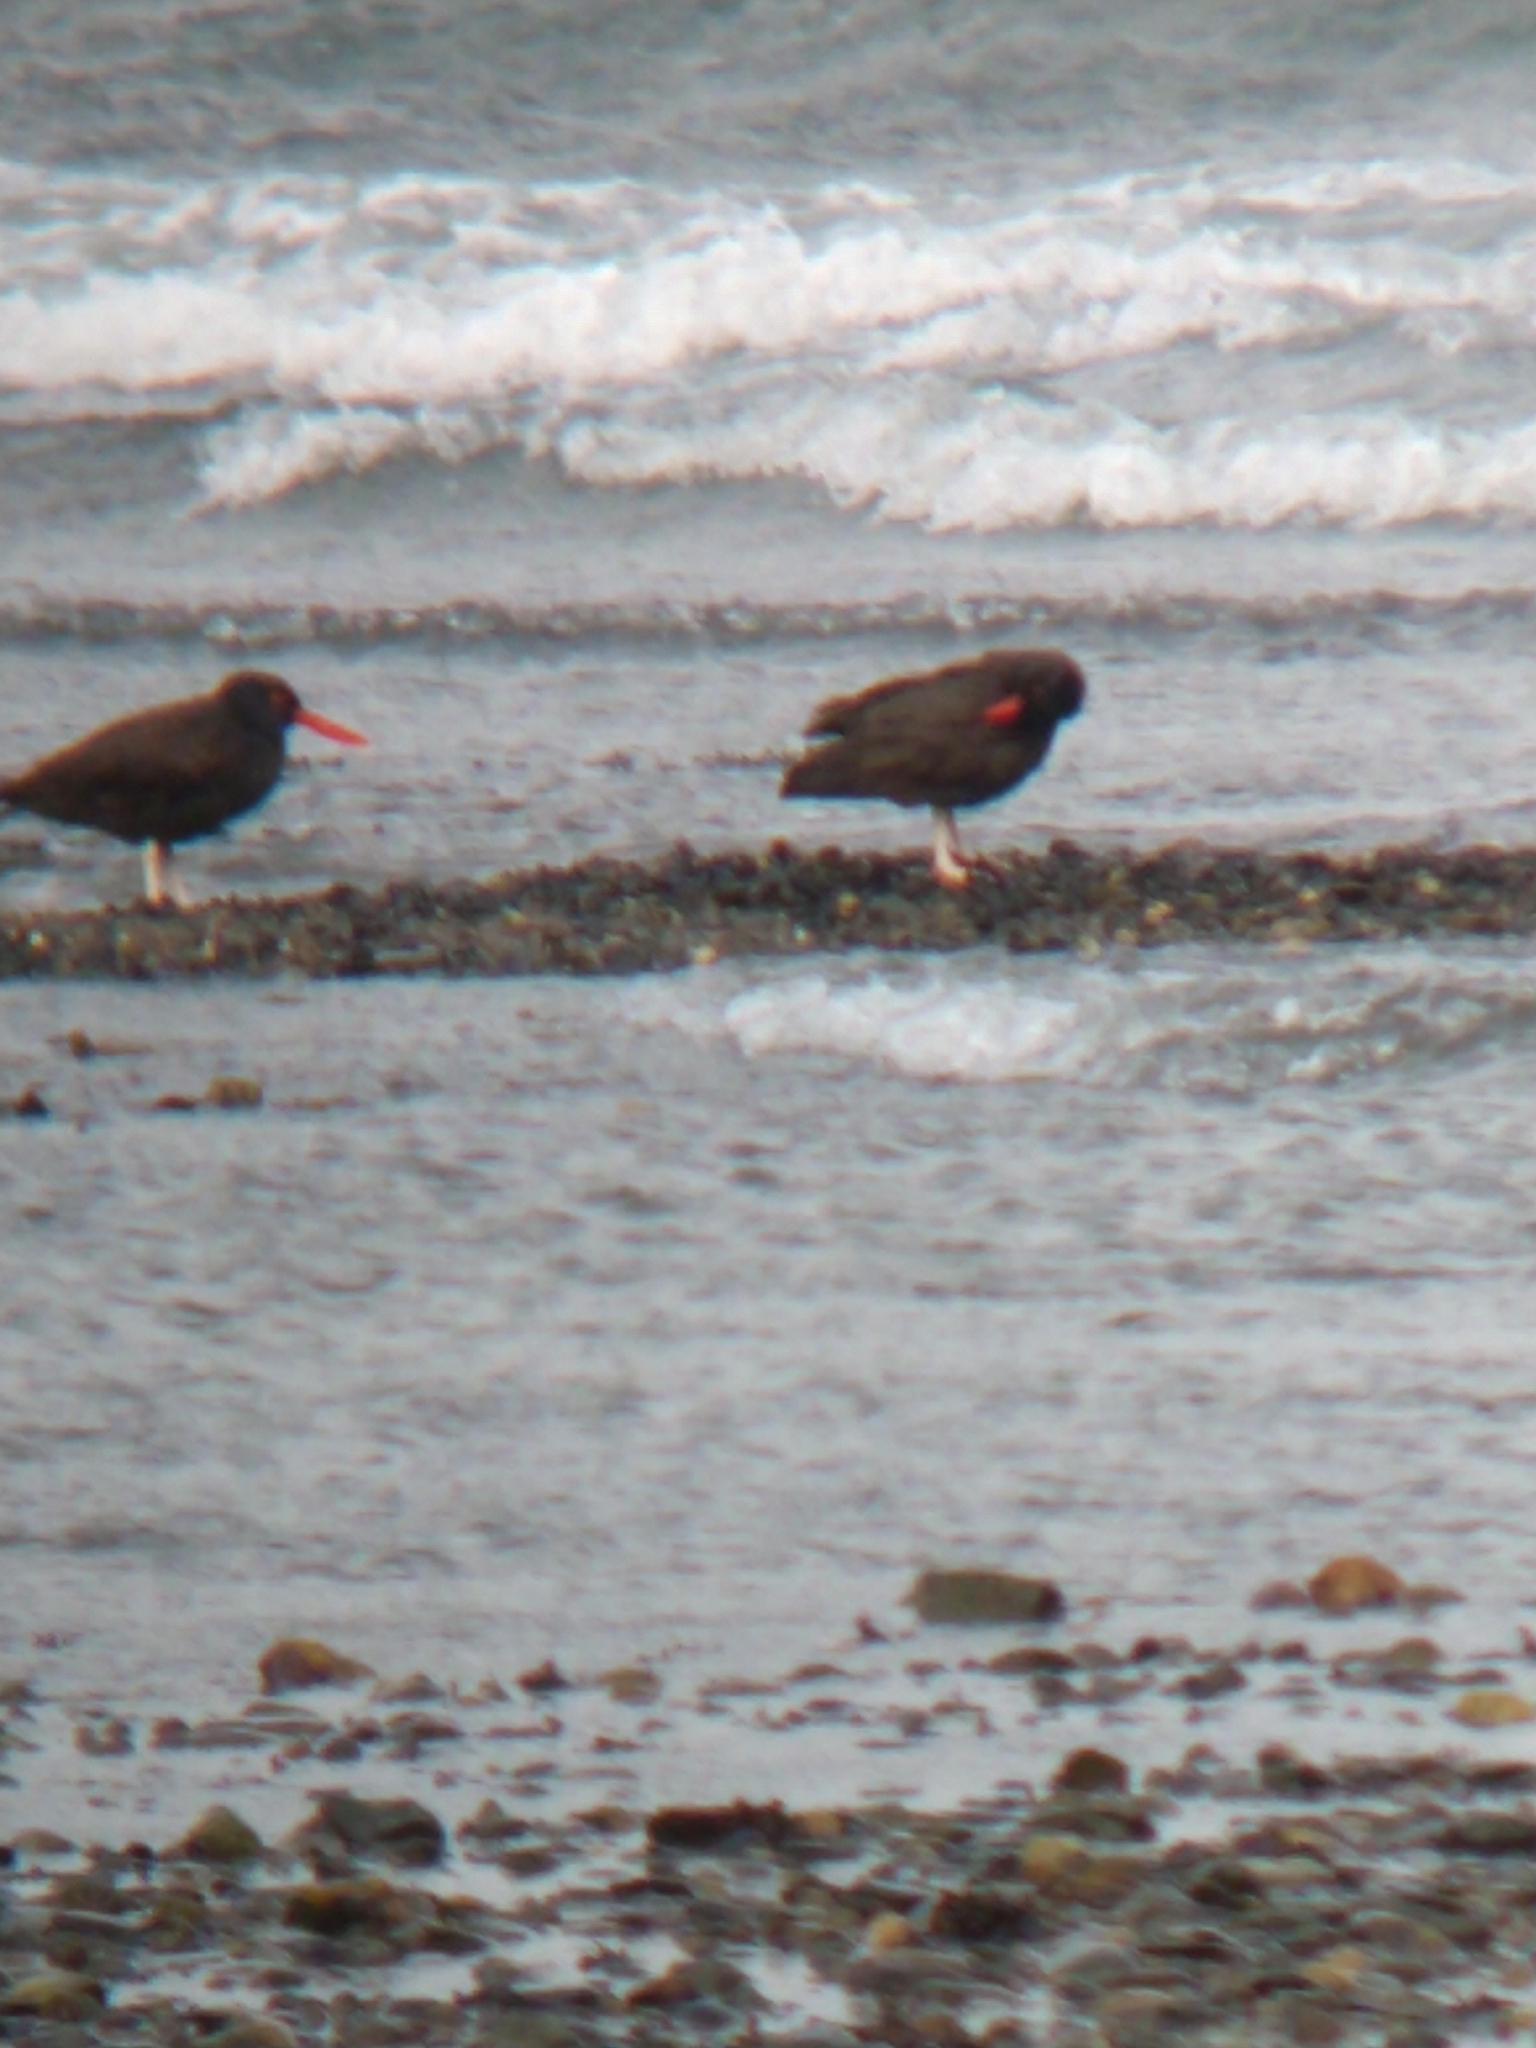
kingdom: Animalia
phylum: Chordata
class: Aves
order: Charadriiformes
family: Haematopodidae
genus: Haematopus
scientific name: Haematopus ater
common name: Blackish oystercatcher
